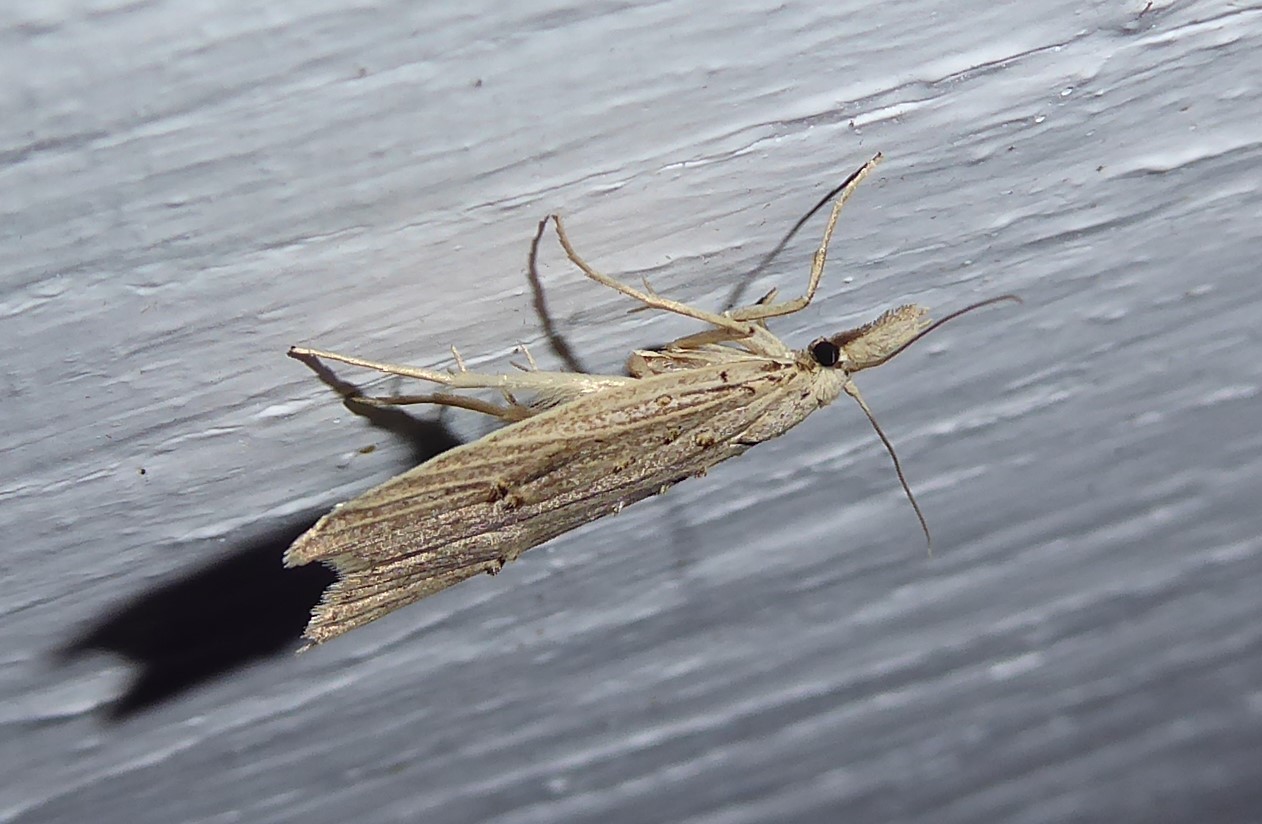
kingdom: Animalia
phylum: Arthropoda
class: Insecta
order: Lepidoptera
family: Carposinidae
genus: Carposina
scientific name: Carposina Heterocrossa exochana
